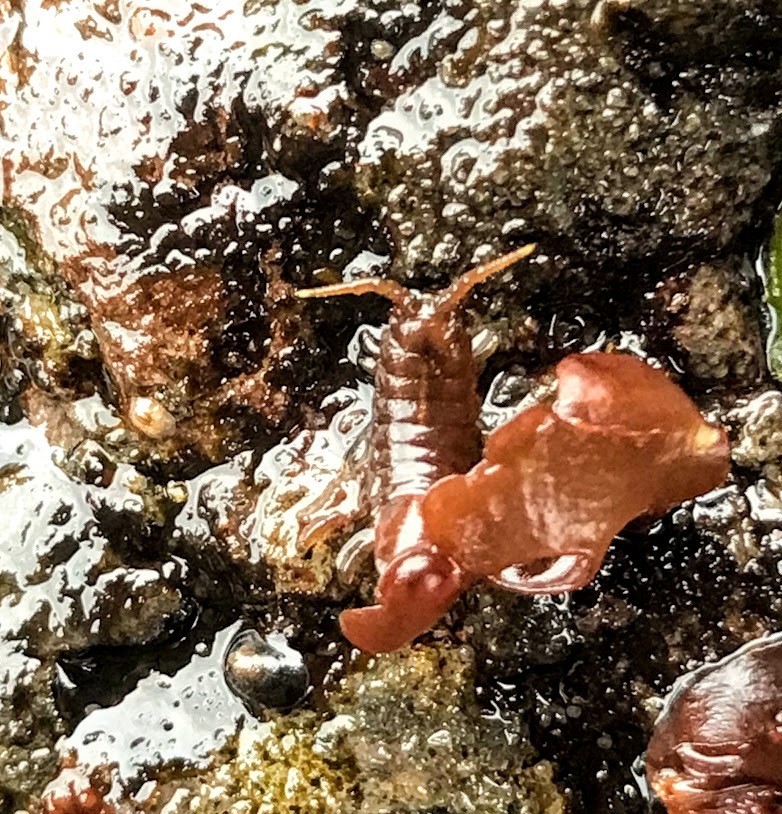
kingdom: Animalia
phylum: Arthropoda
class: Malacostraca
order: Isopoda
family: Idoteidae
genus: Pentidotea
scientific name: Pentidotea wosnesenskii
